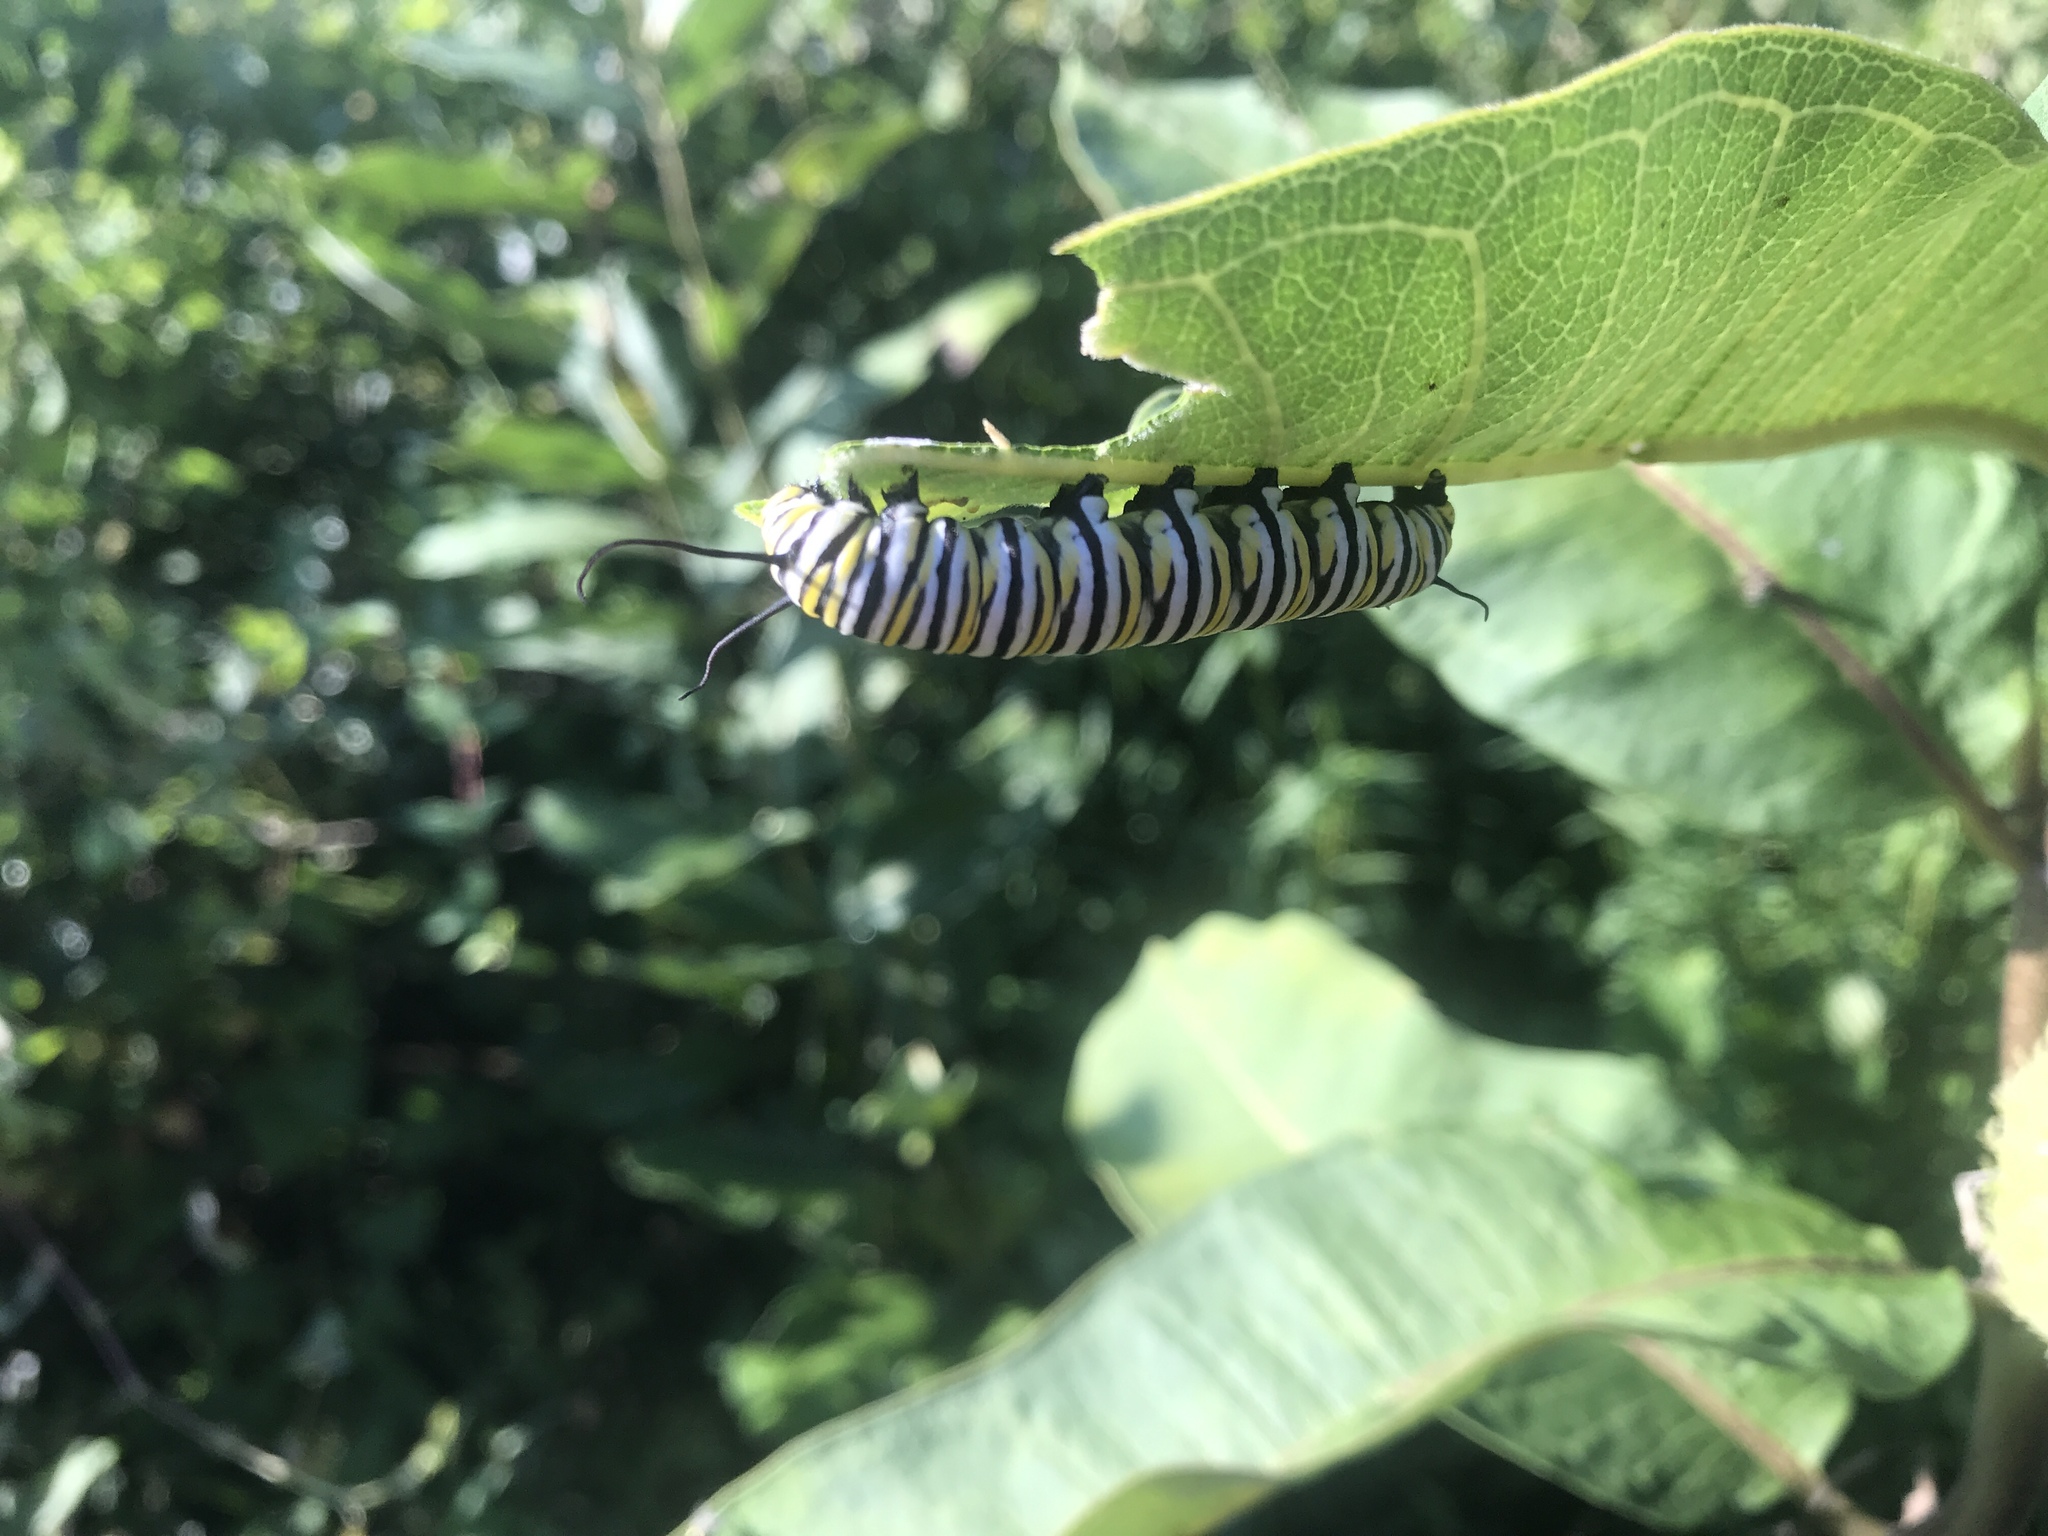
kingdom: Animalia
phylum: Arthropoda
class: Insecta
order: Lepidoptera
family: Nymphalidae
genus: Danaus
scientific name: Danaus plexippus
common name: Monarch
